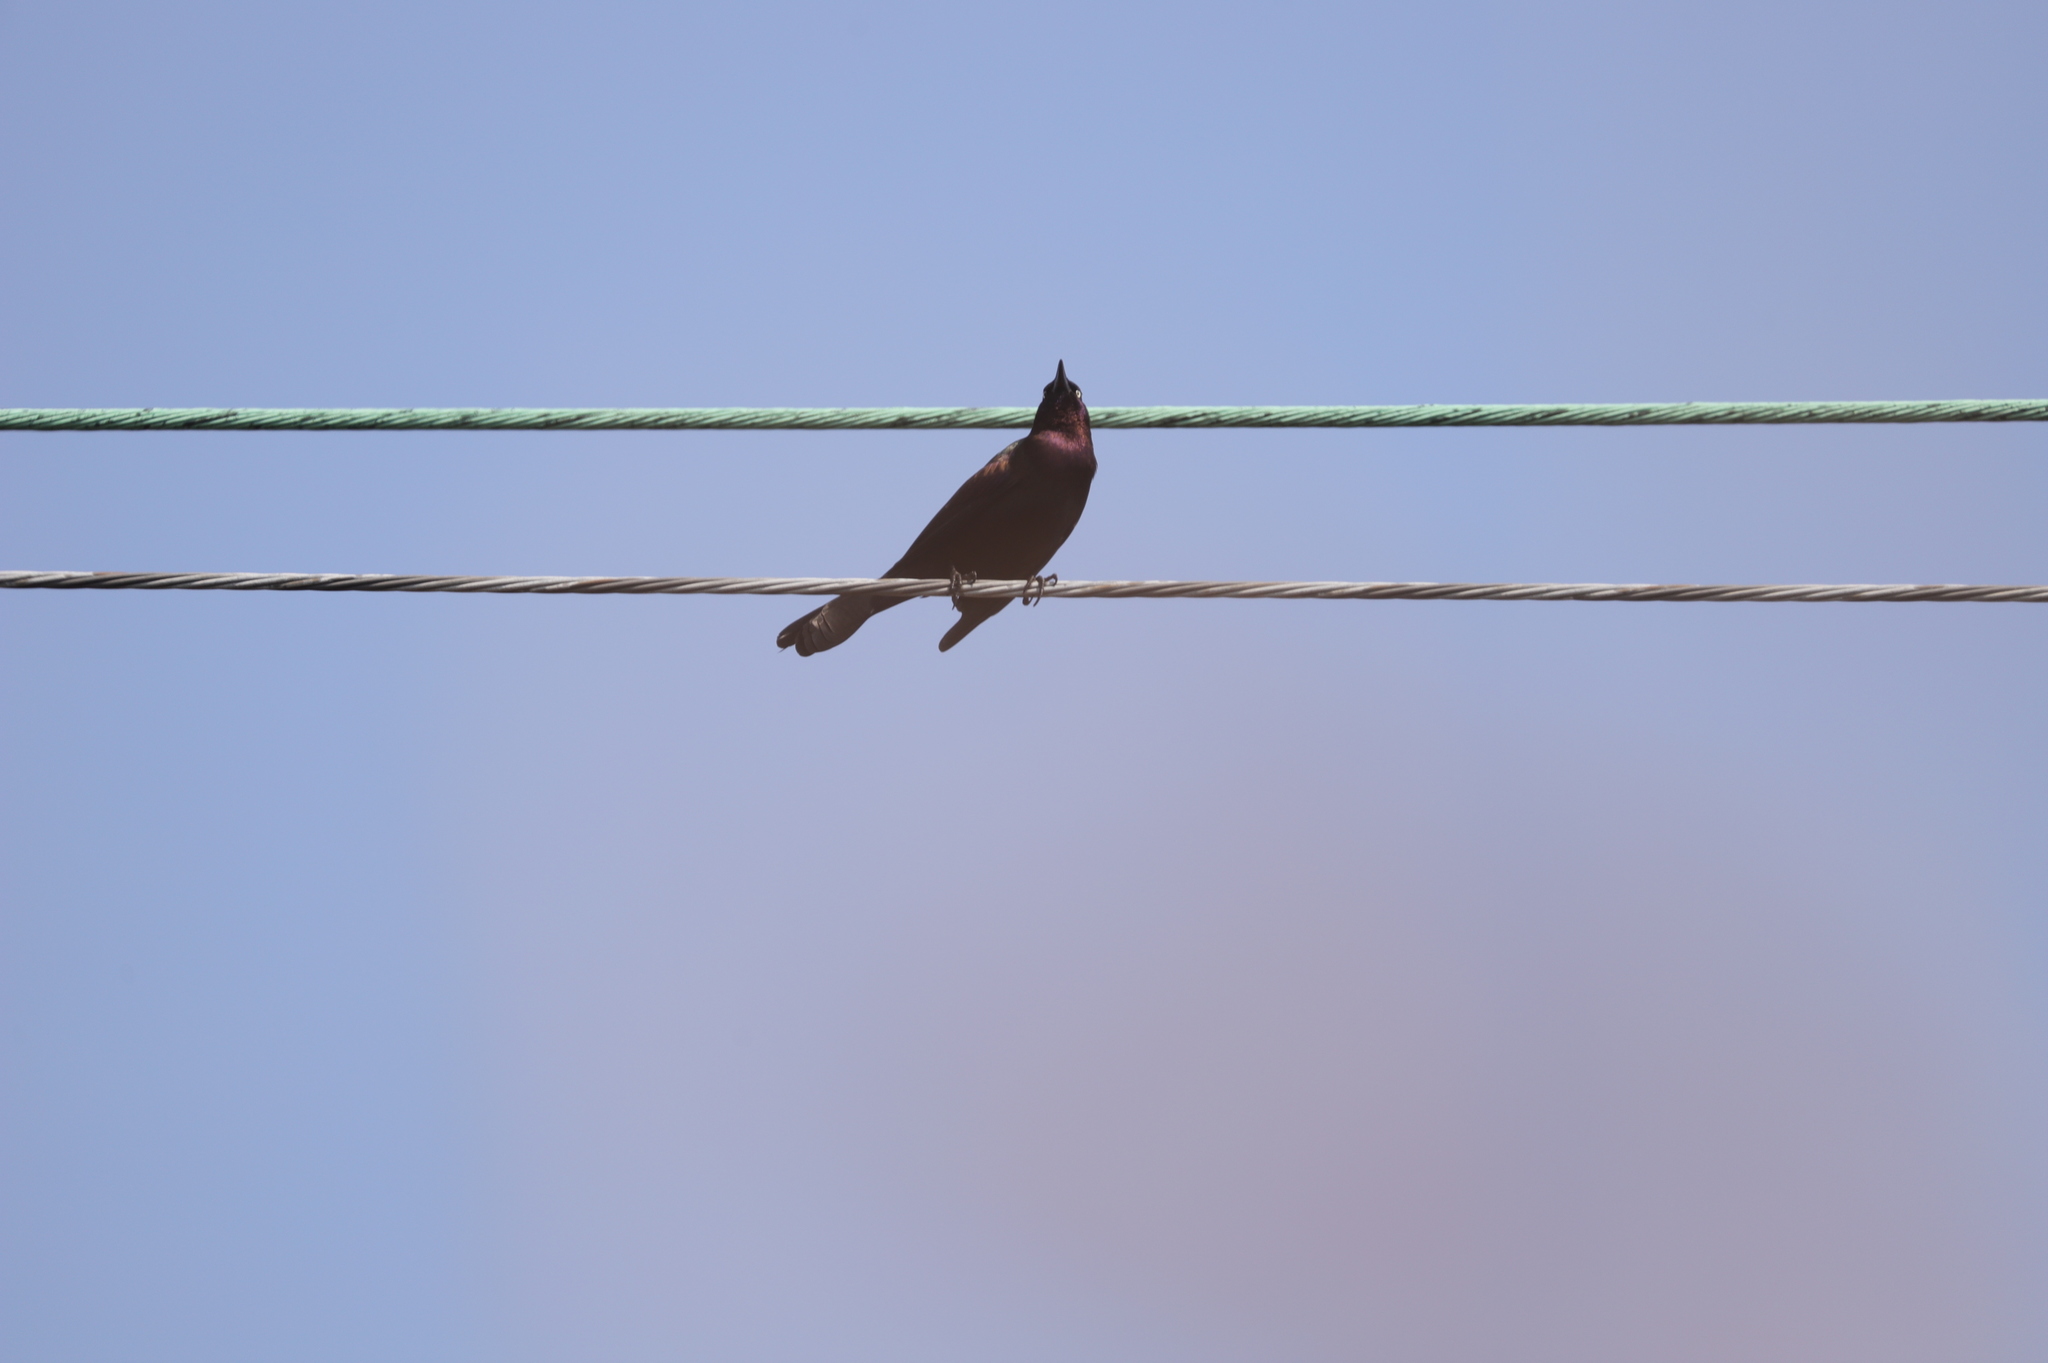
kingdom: Animalia
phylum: Chordata
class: Aves
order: Passeriformes
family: Icteridae
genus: Quiscalus
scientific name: Quiscalus quiscula
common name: Common grackle
